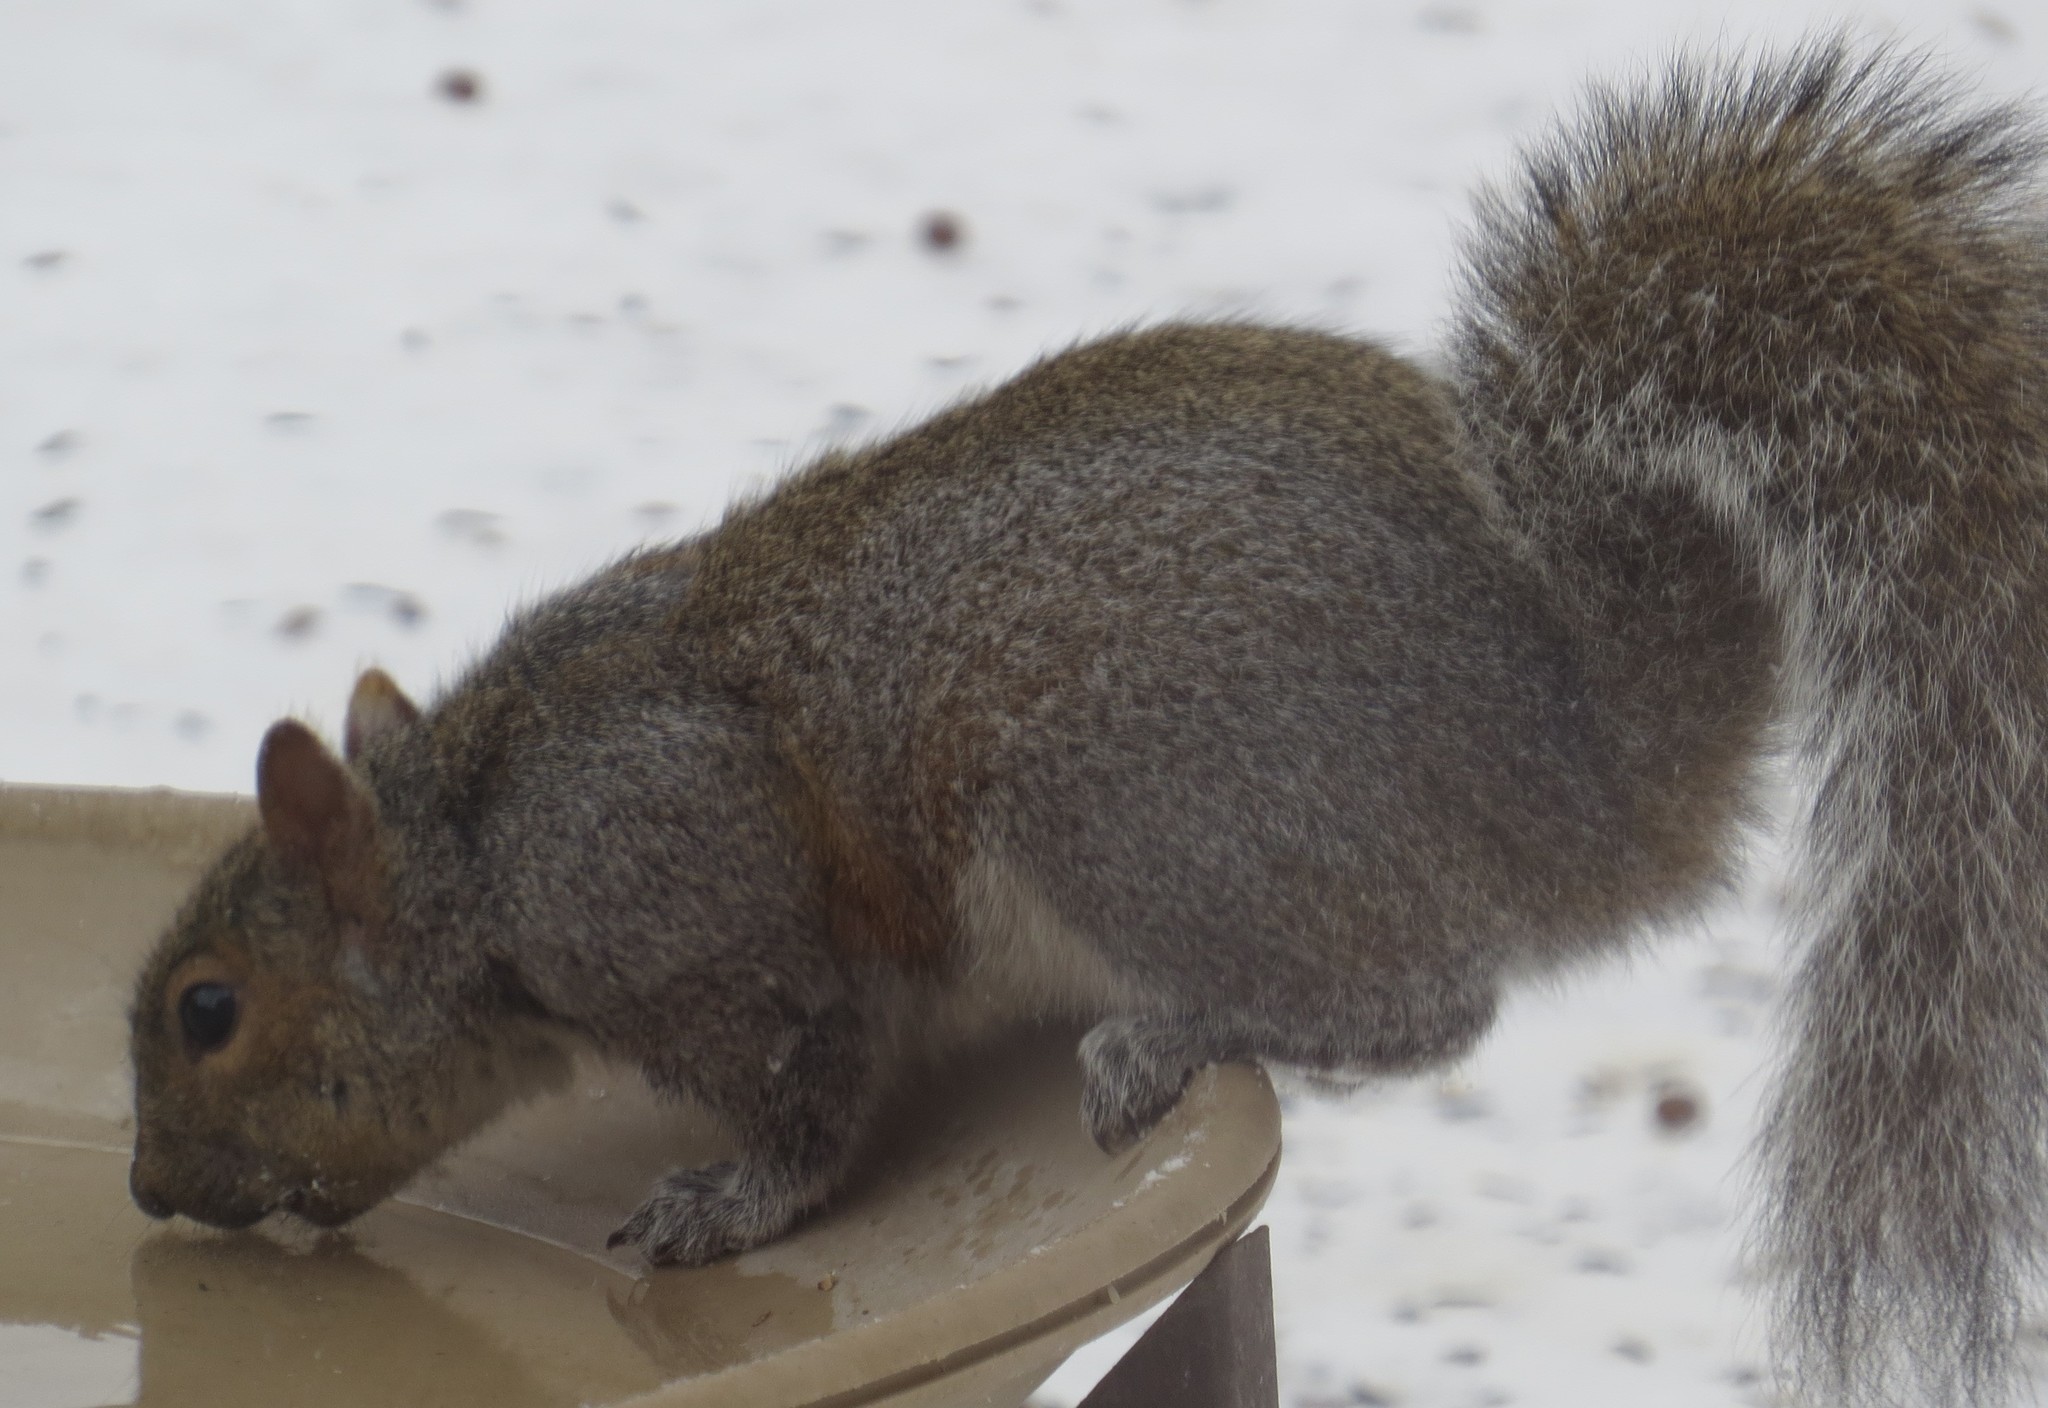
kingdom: Animalia
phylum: Chordata
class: Mammalia
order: Rodentia
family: Sciuridae
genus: Sciurus
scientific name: Sciurus carolinensis
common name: Eastern gray squirrel
